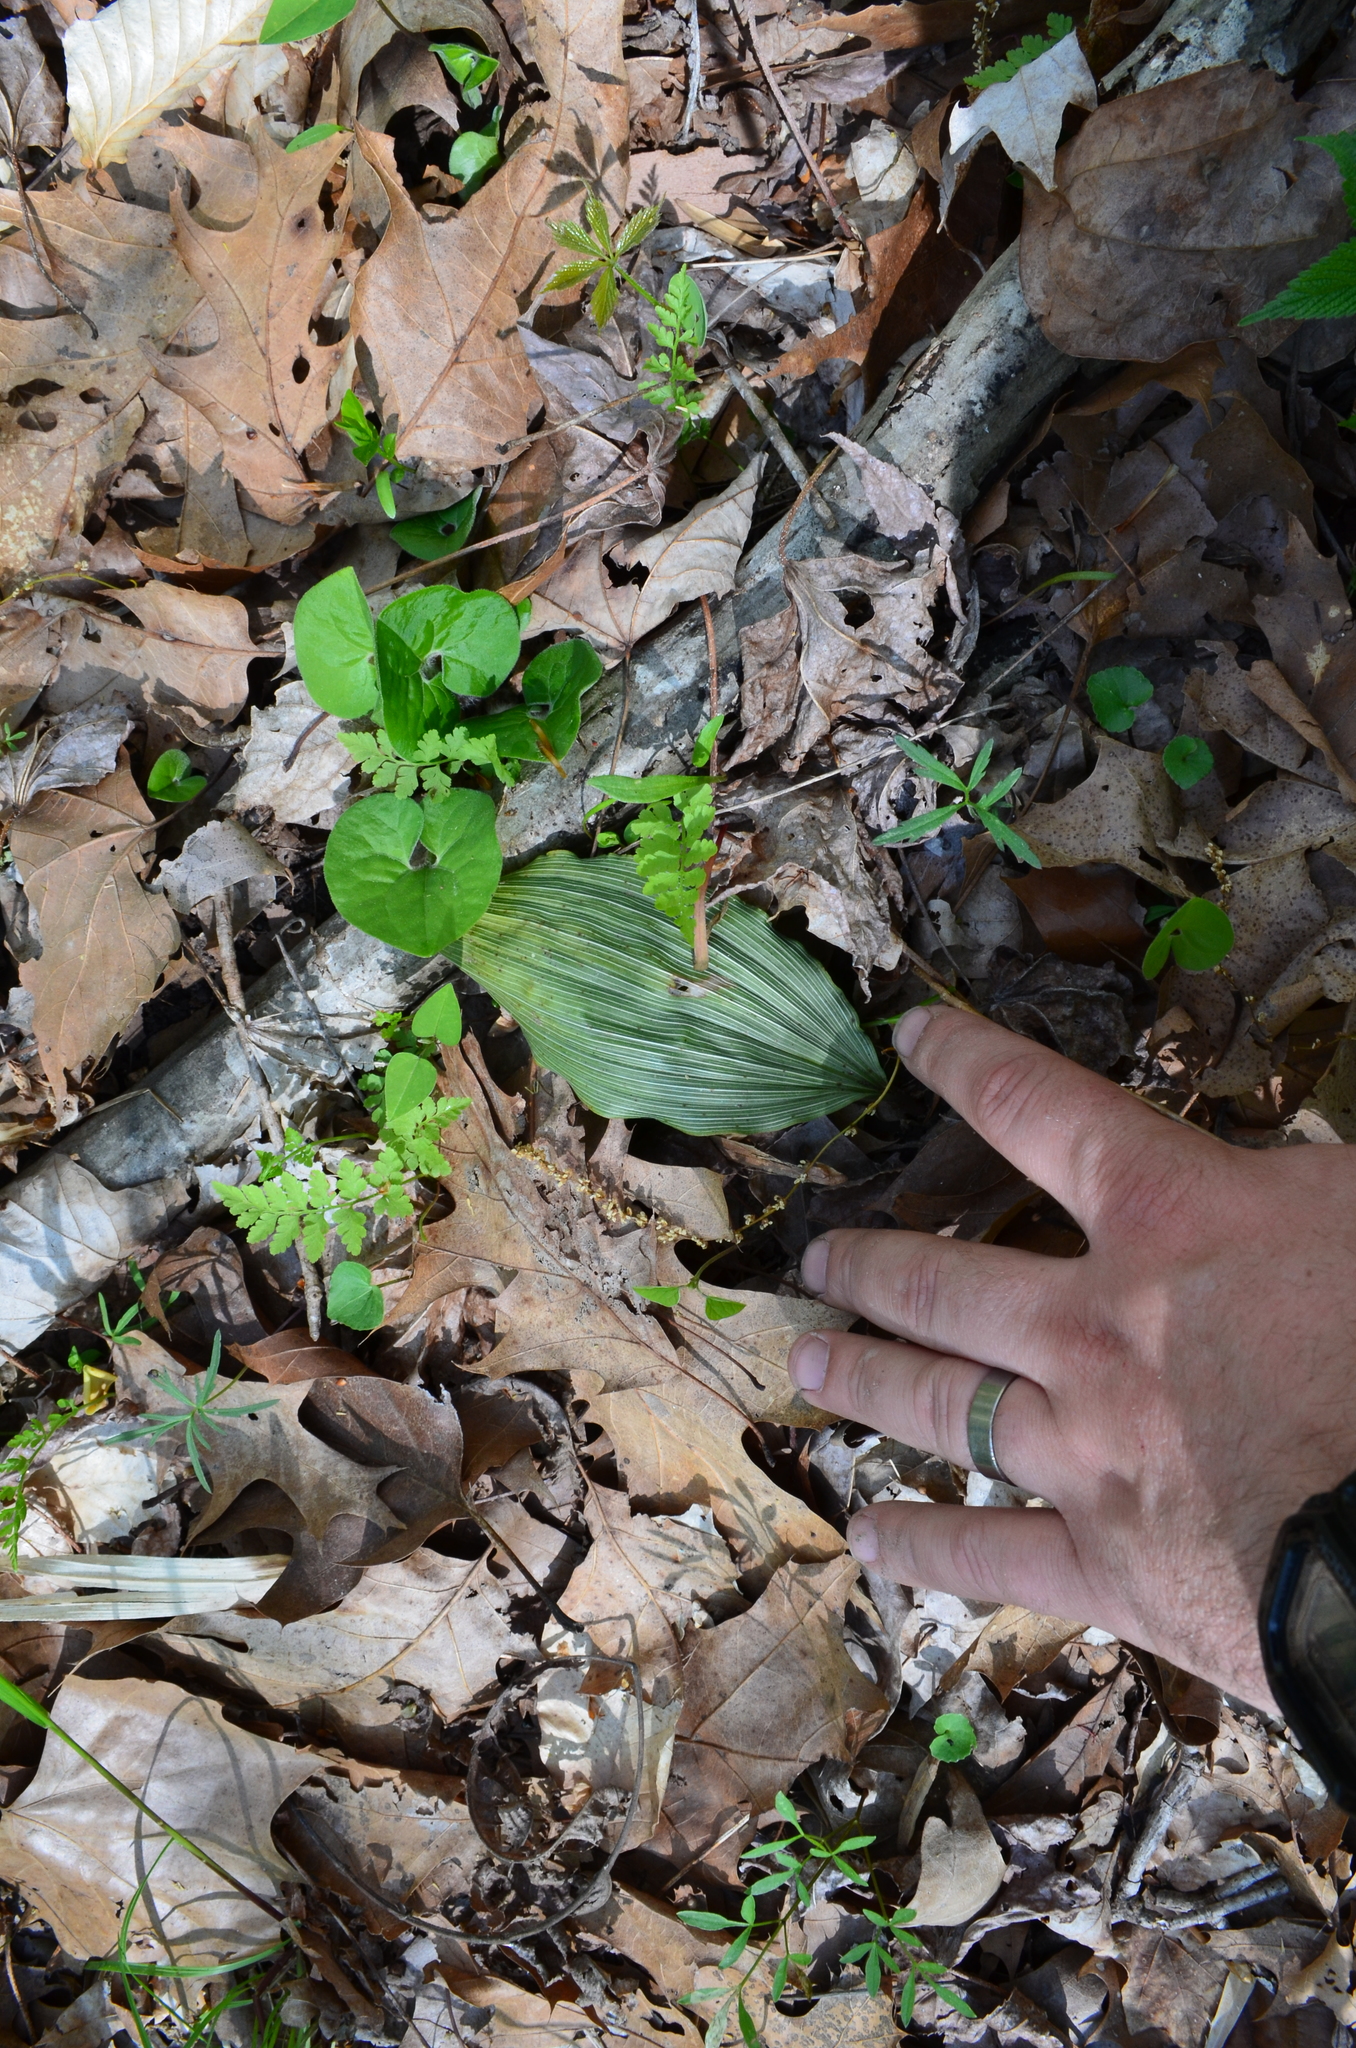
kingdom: Plantae
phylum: Tracheophyta
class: Liliopsida
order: Asparagales
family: Orchidaceae
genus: Aplectrum
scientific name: Aplectrum hyemale
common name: Adam-and-eve
